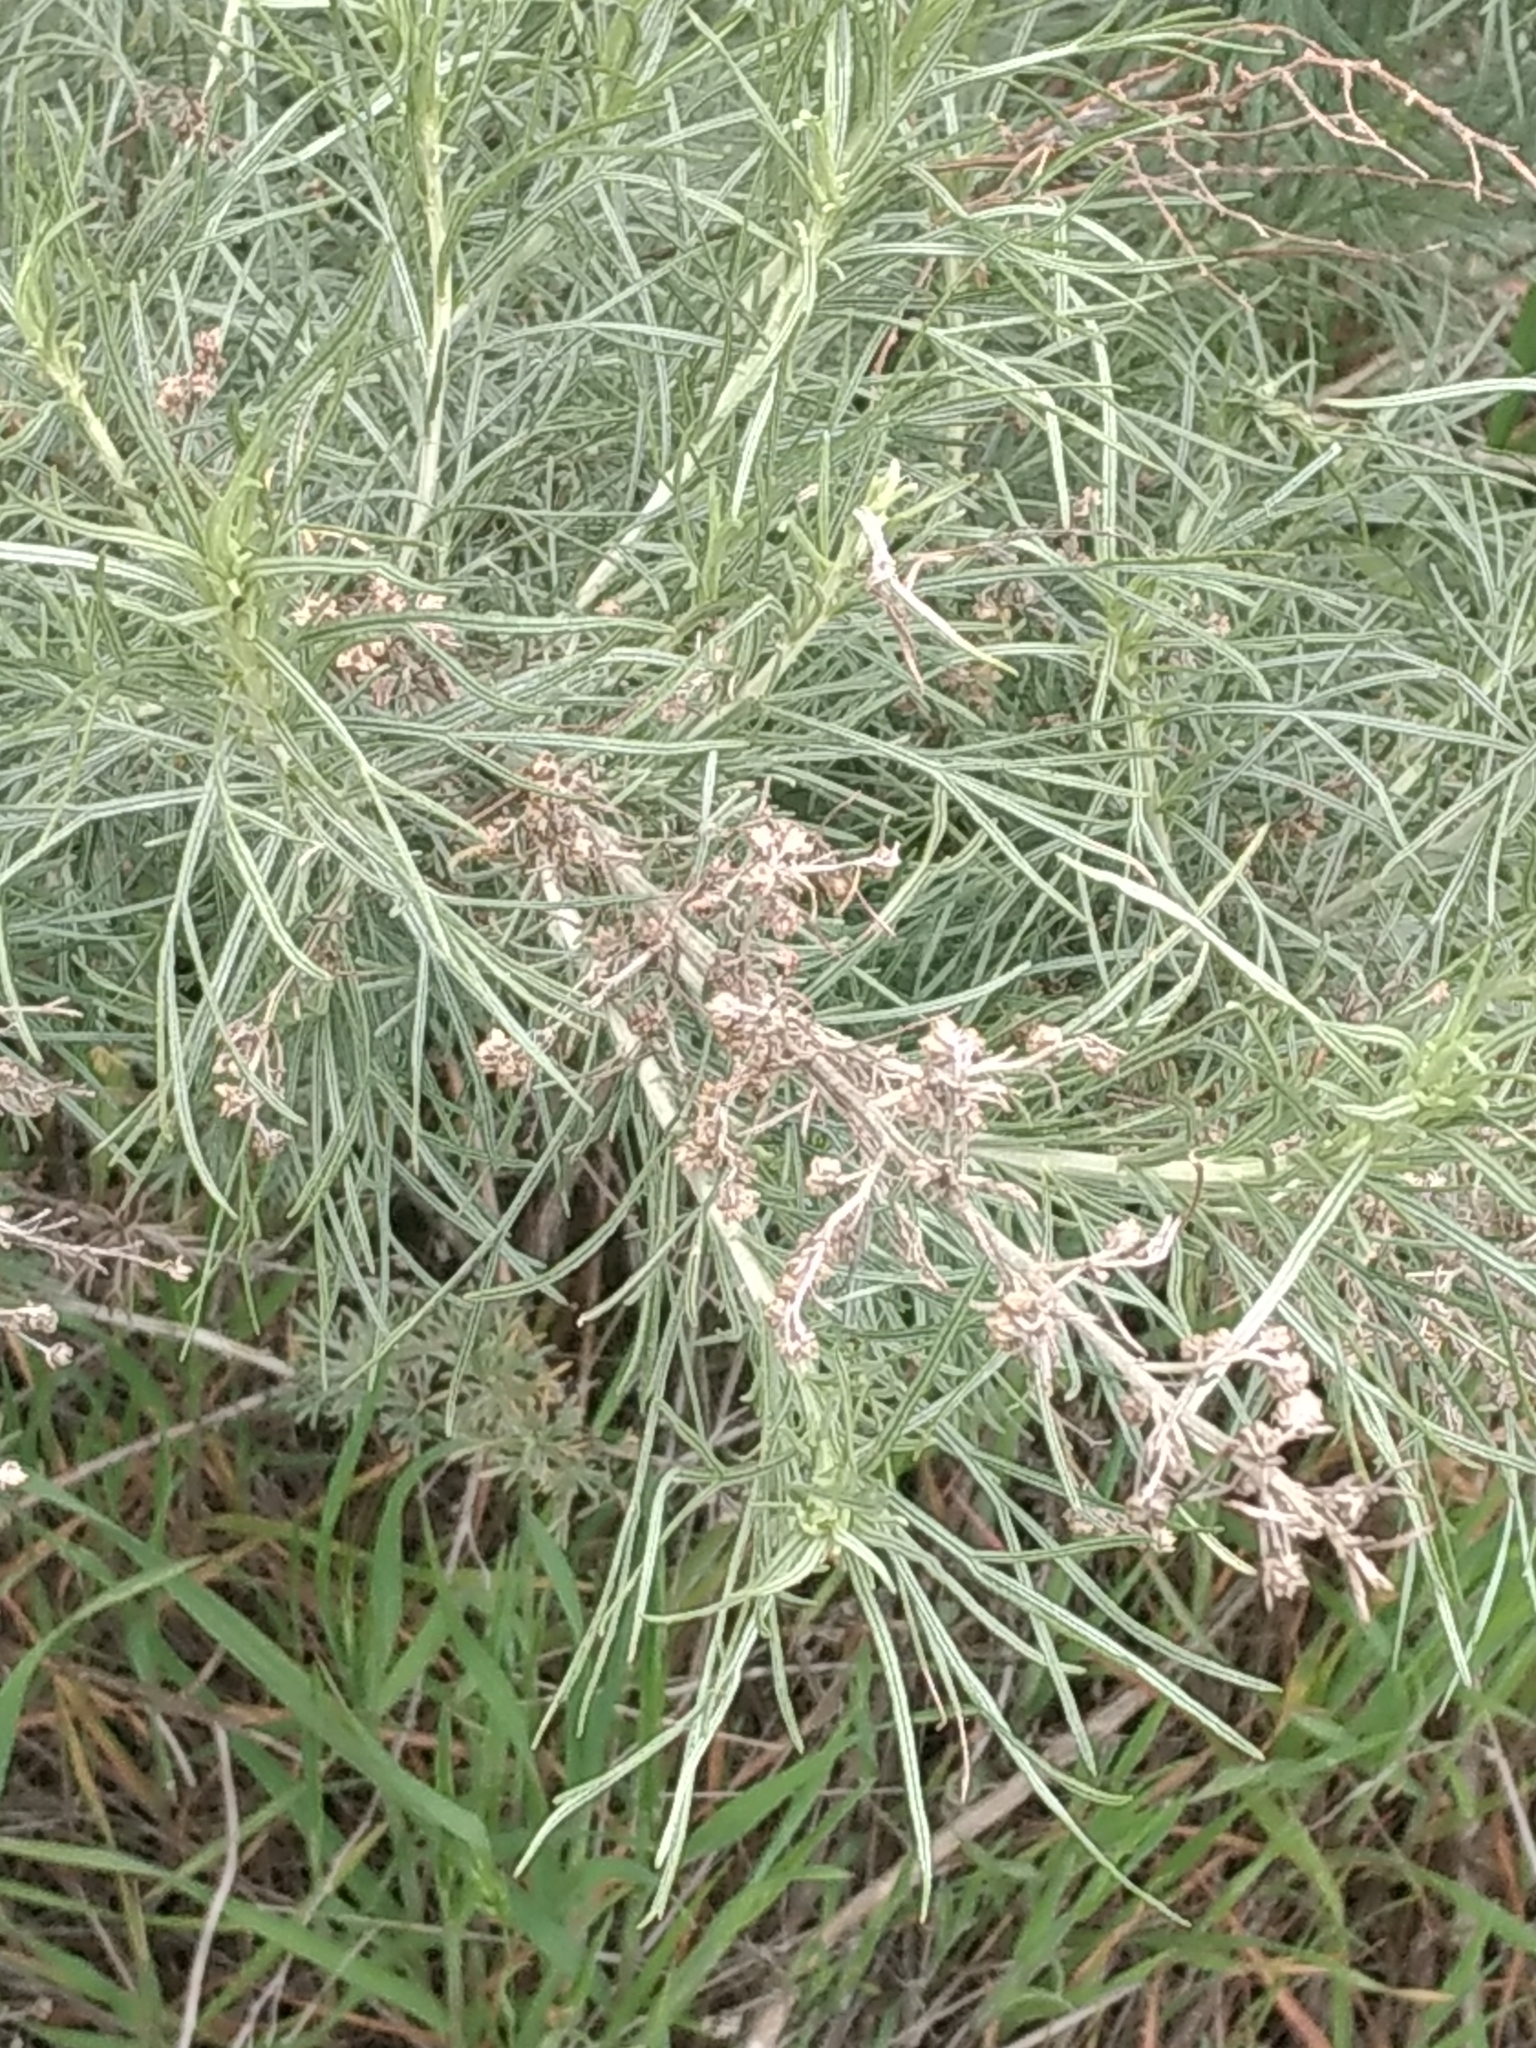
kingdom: Plantae
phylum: Tracheophyta
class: Magnoliopsida
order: Asterales
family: Asteraceae
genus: Artemisia
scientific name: Artemisia californica
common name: California sagebrush
